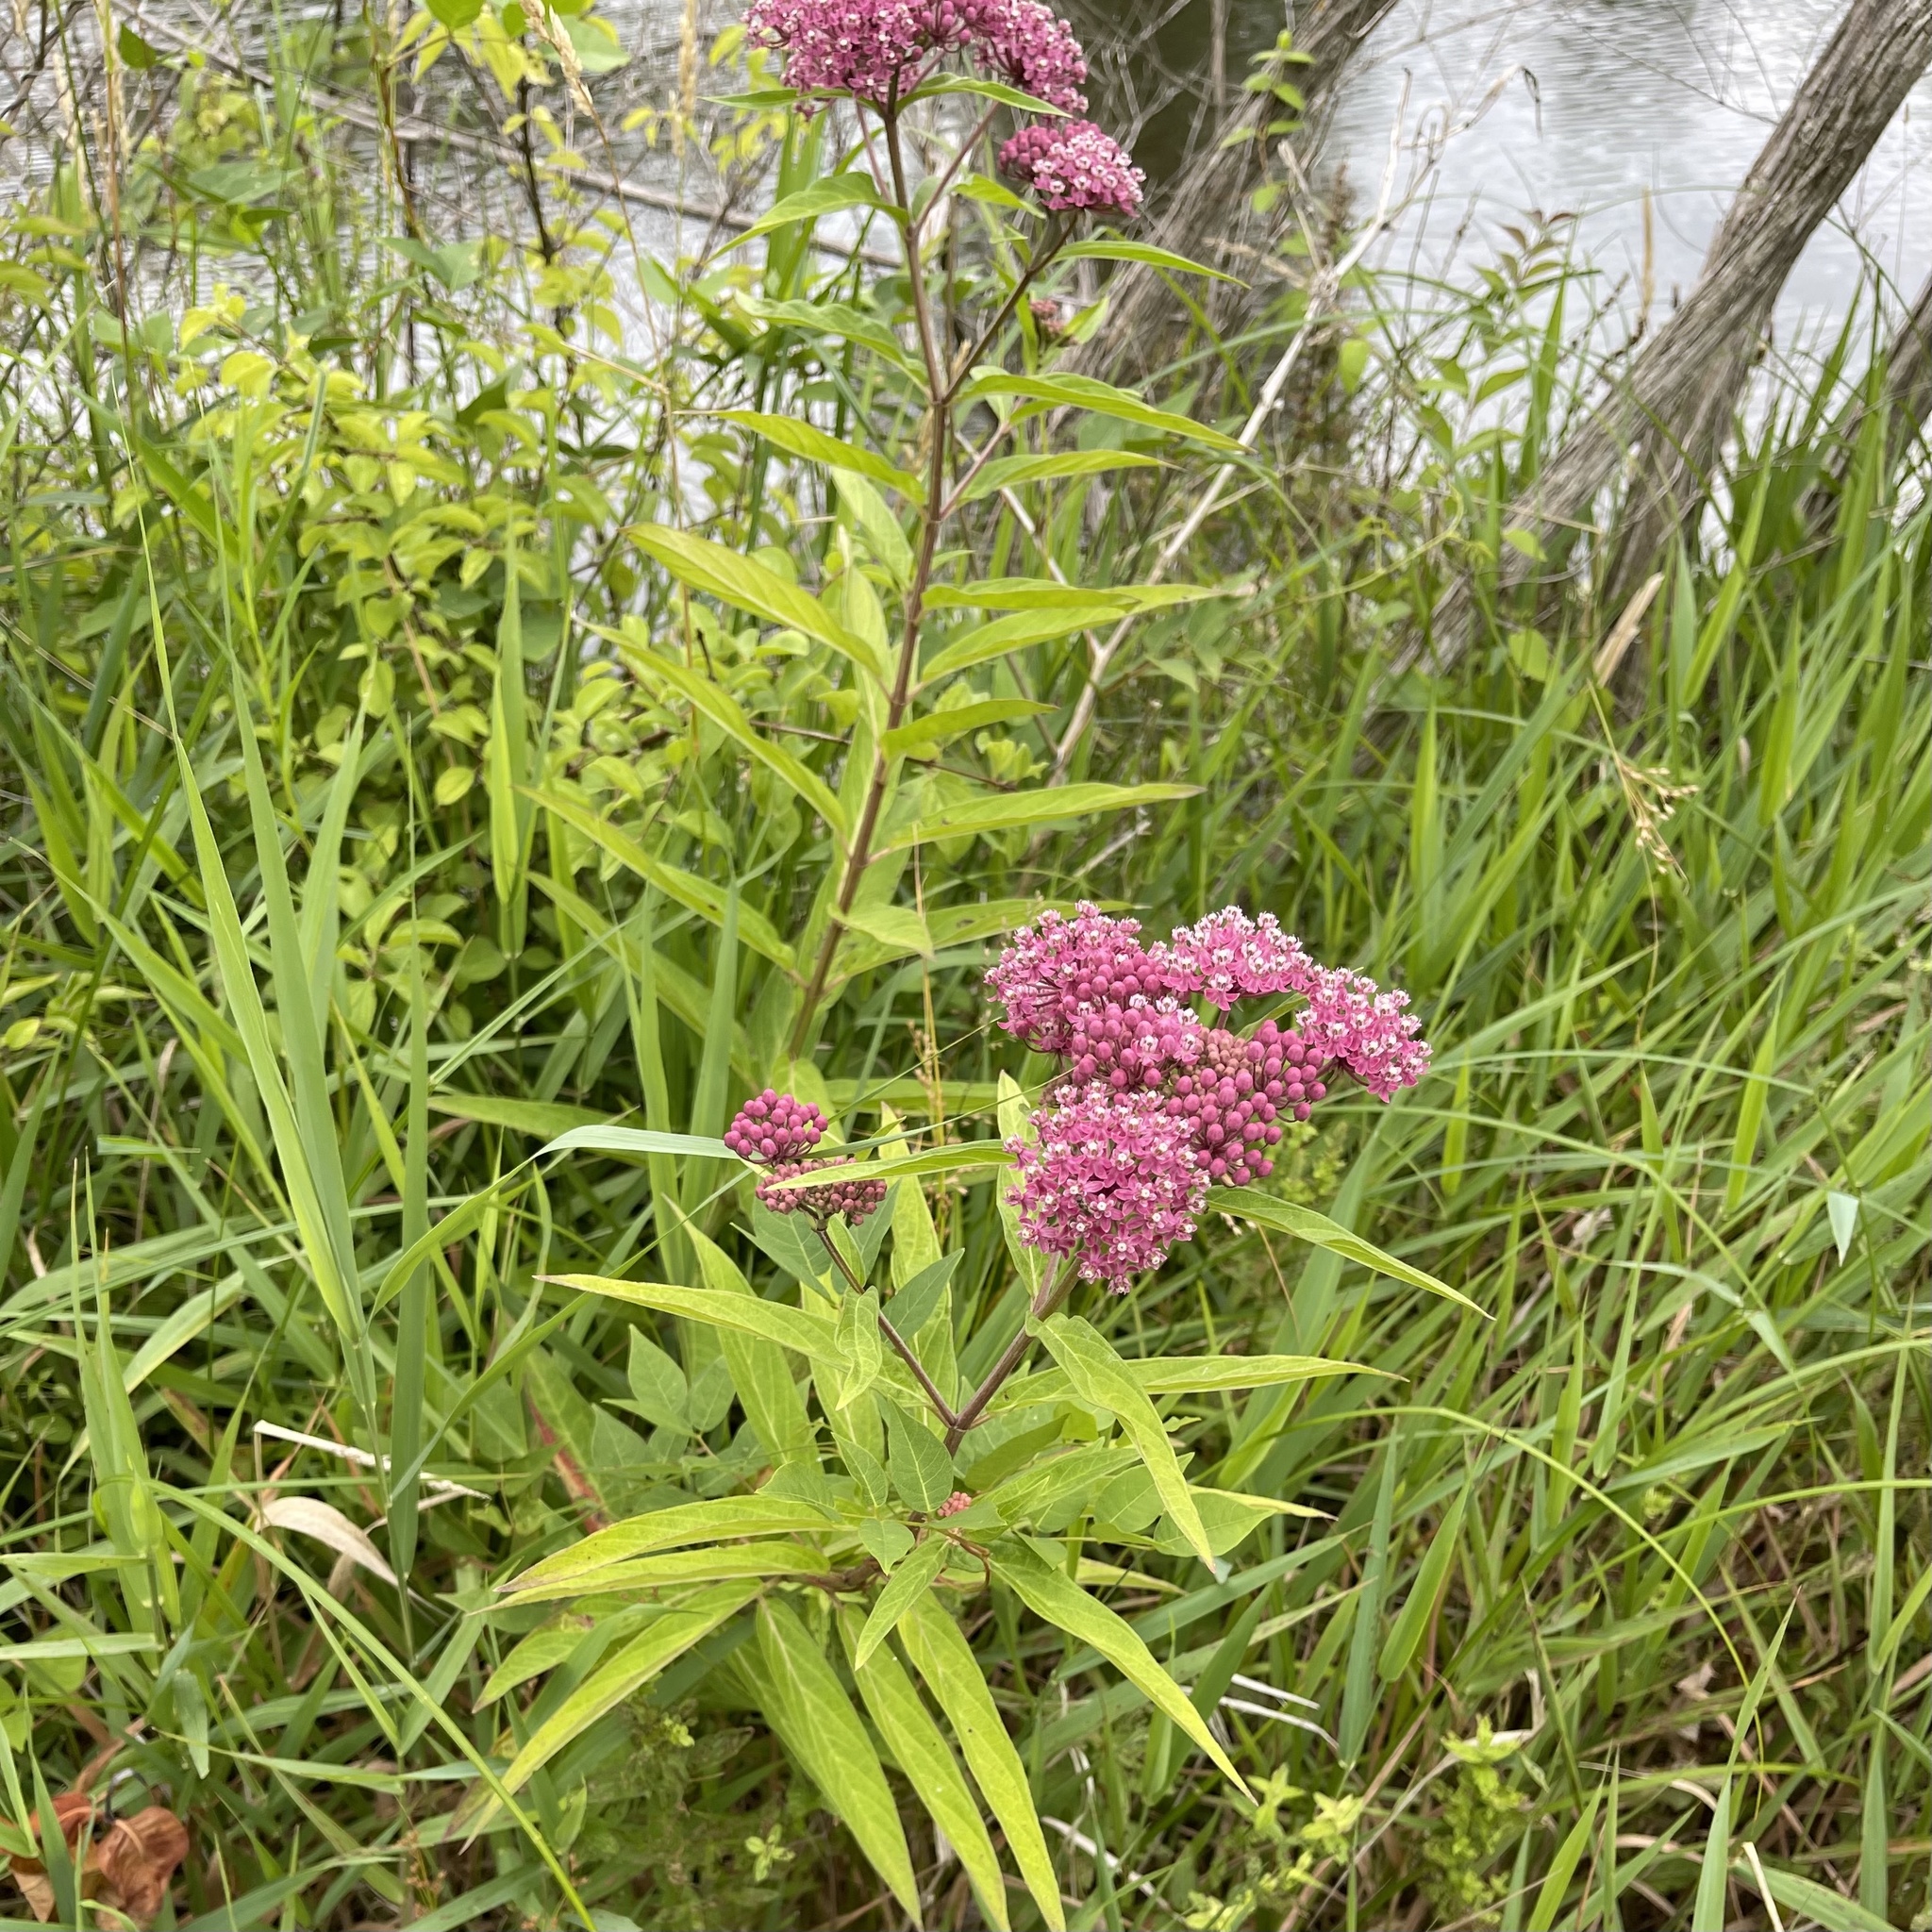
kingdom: Plantae
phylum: Tracheophyta
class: Magnoliopsida
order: Gentianales
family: Apocynaceae
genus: Asclepias
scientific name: Asclepias incarnata
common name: Swamp milkweed
